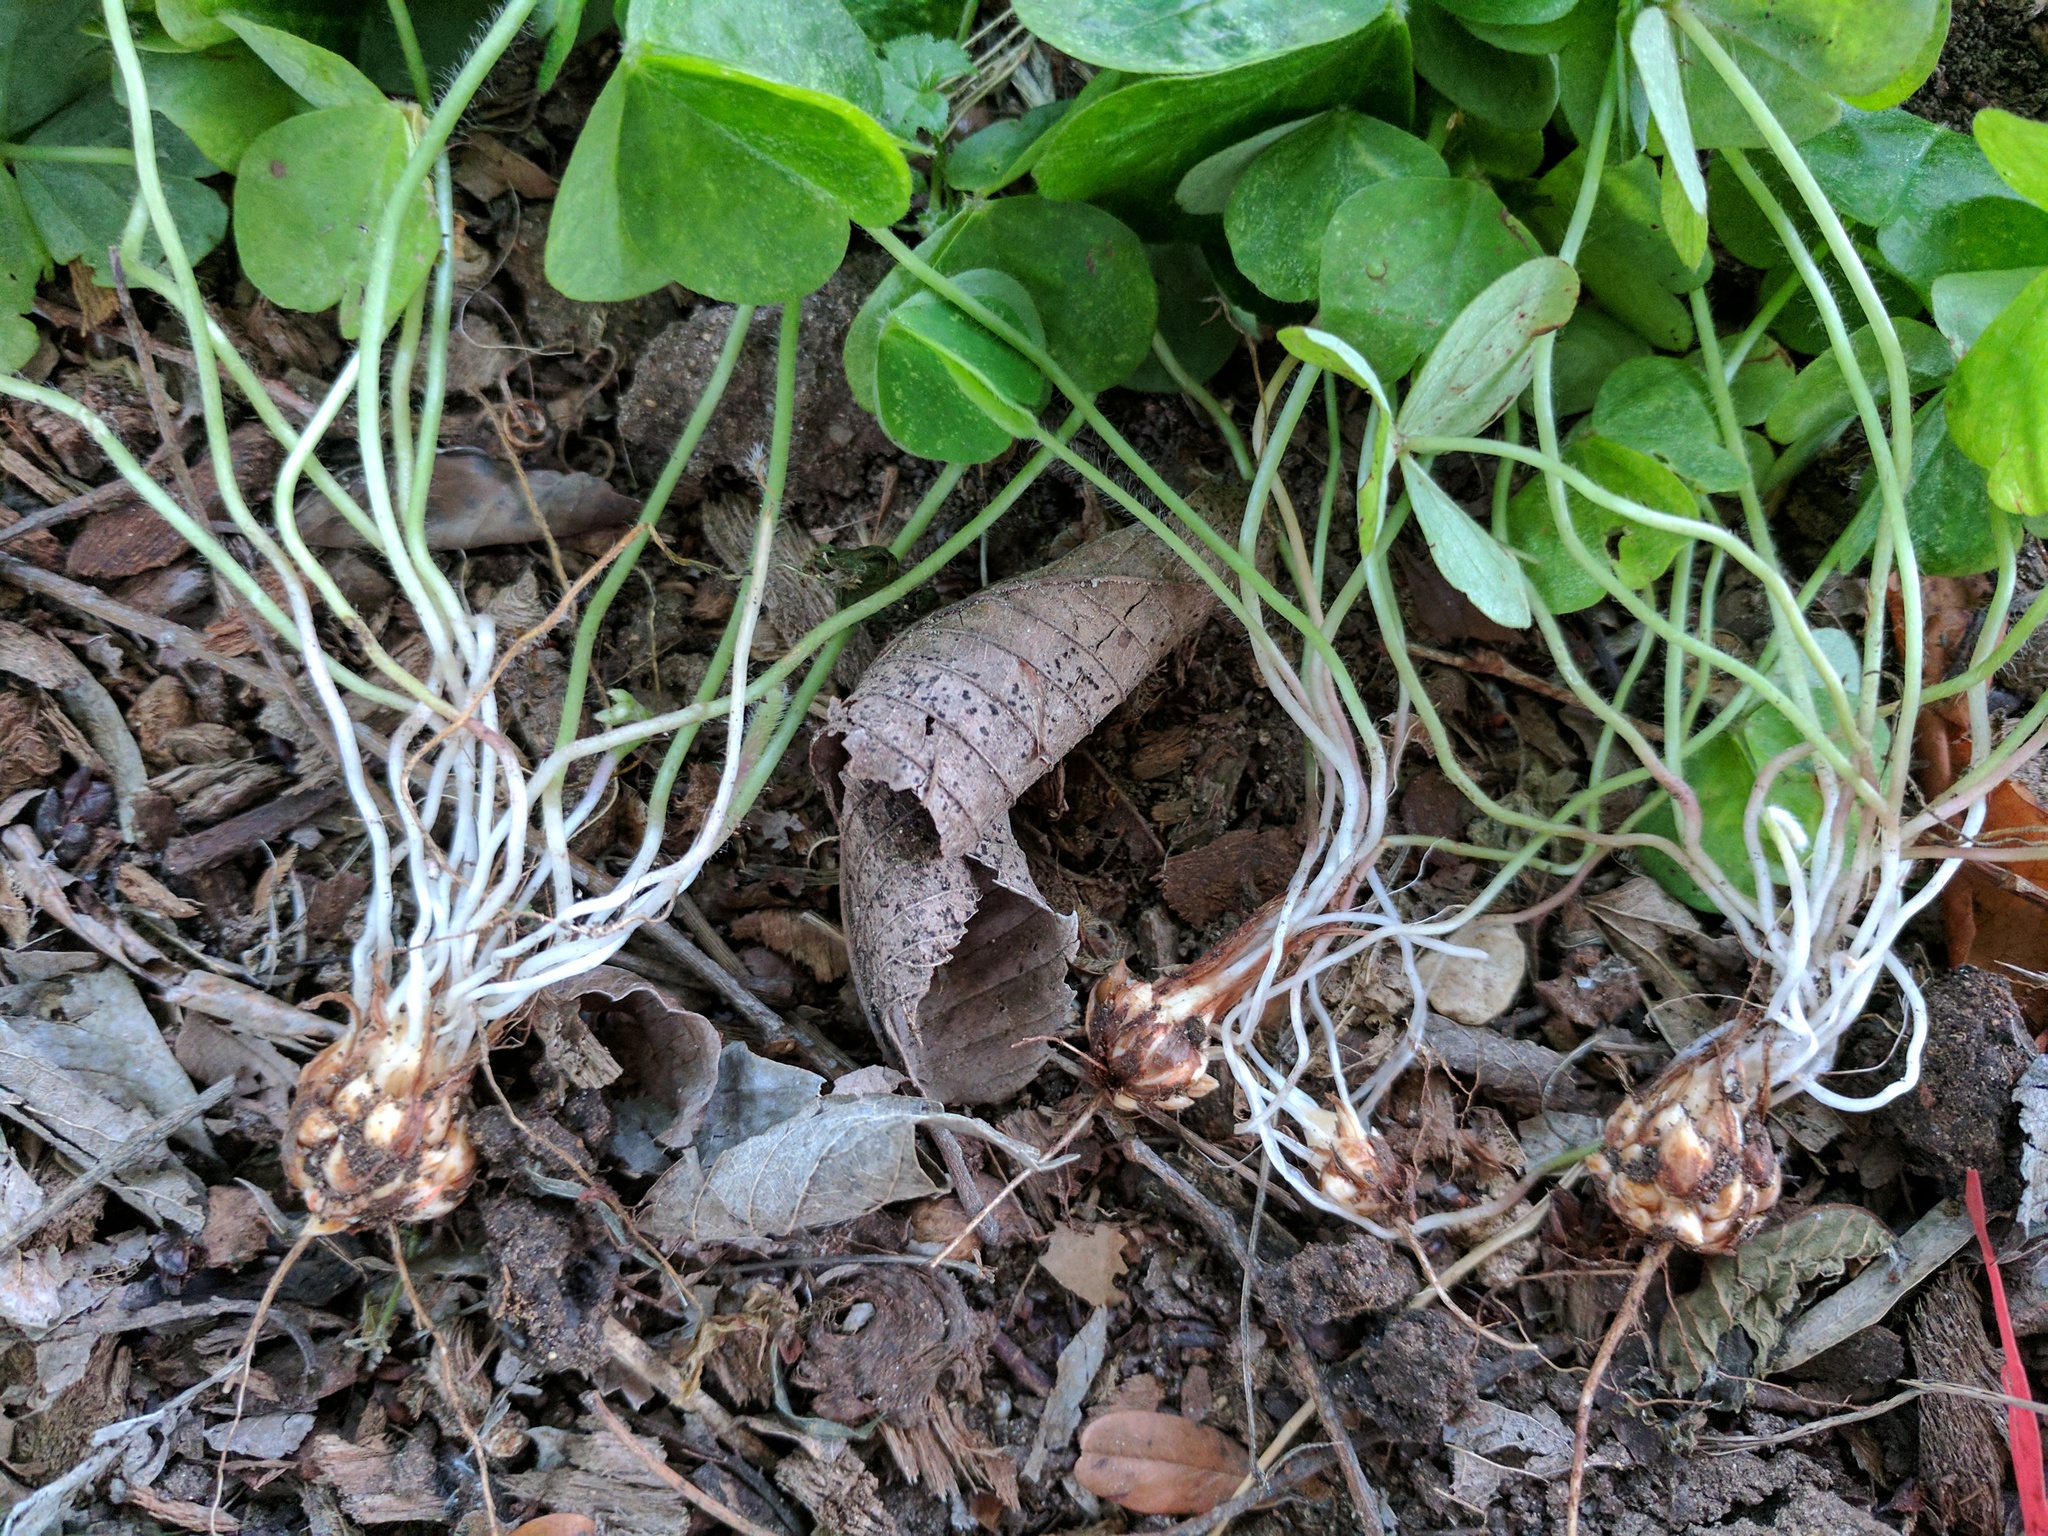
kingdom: Plantae
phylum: Tracheophyta
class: Magnoliopsida
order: Oxalidales
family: Oxalidaceae
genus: Oxalis
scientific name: Oxalis debilis
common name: Large-flowered pink-sorrel
